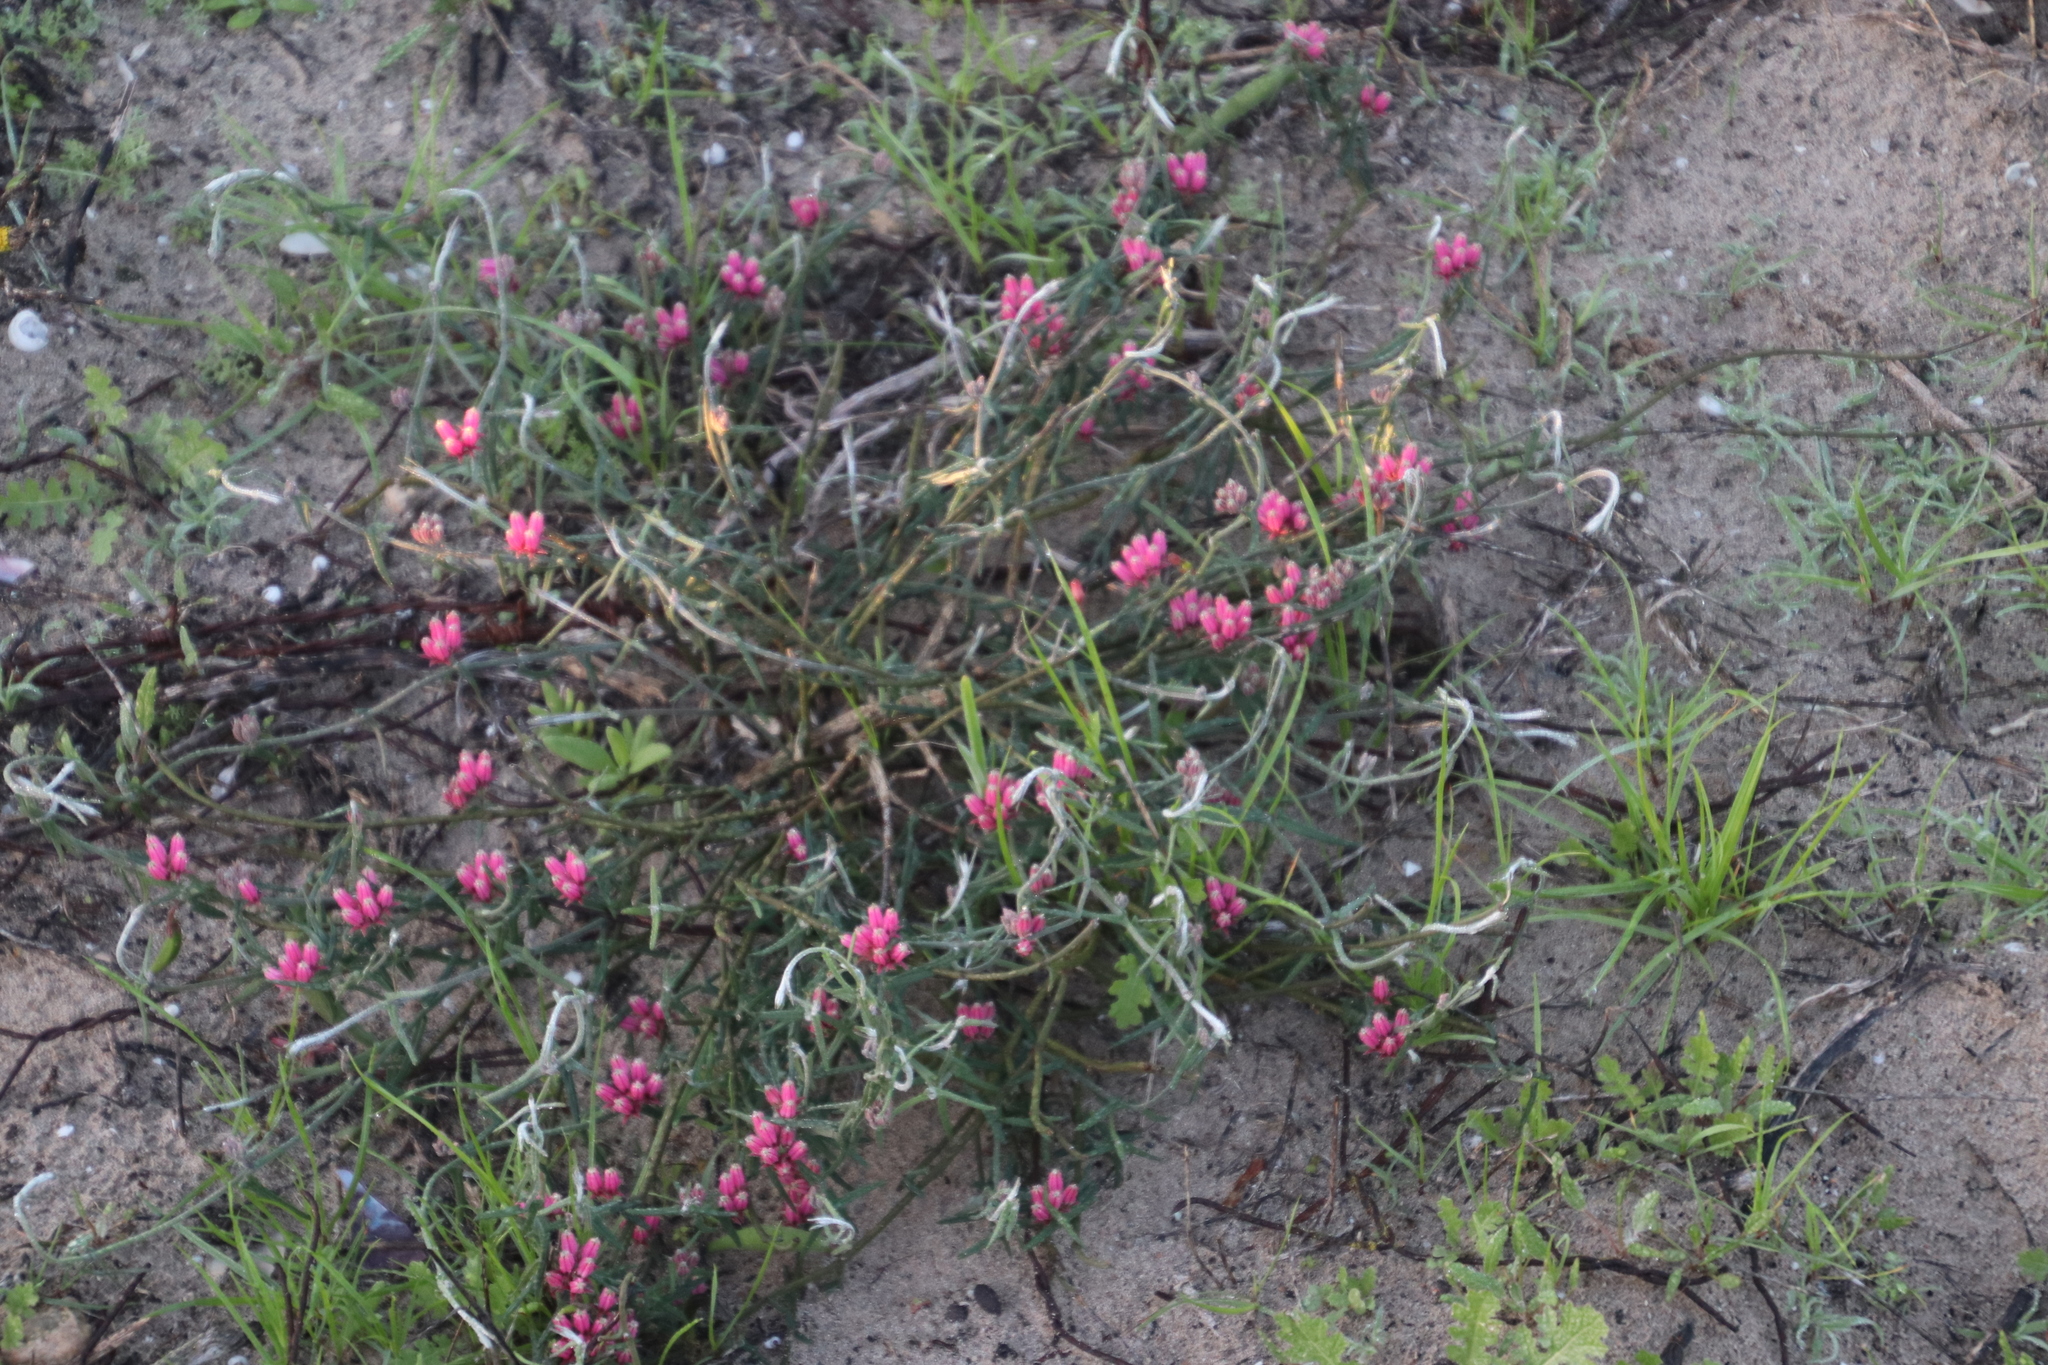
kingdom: Plantae
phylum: Tracheophyta
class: Magnoliopsida
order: Gentianales
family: Apocynaceae
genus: Microloma
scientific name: Microloma sagittatum
